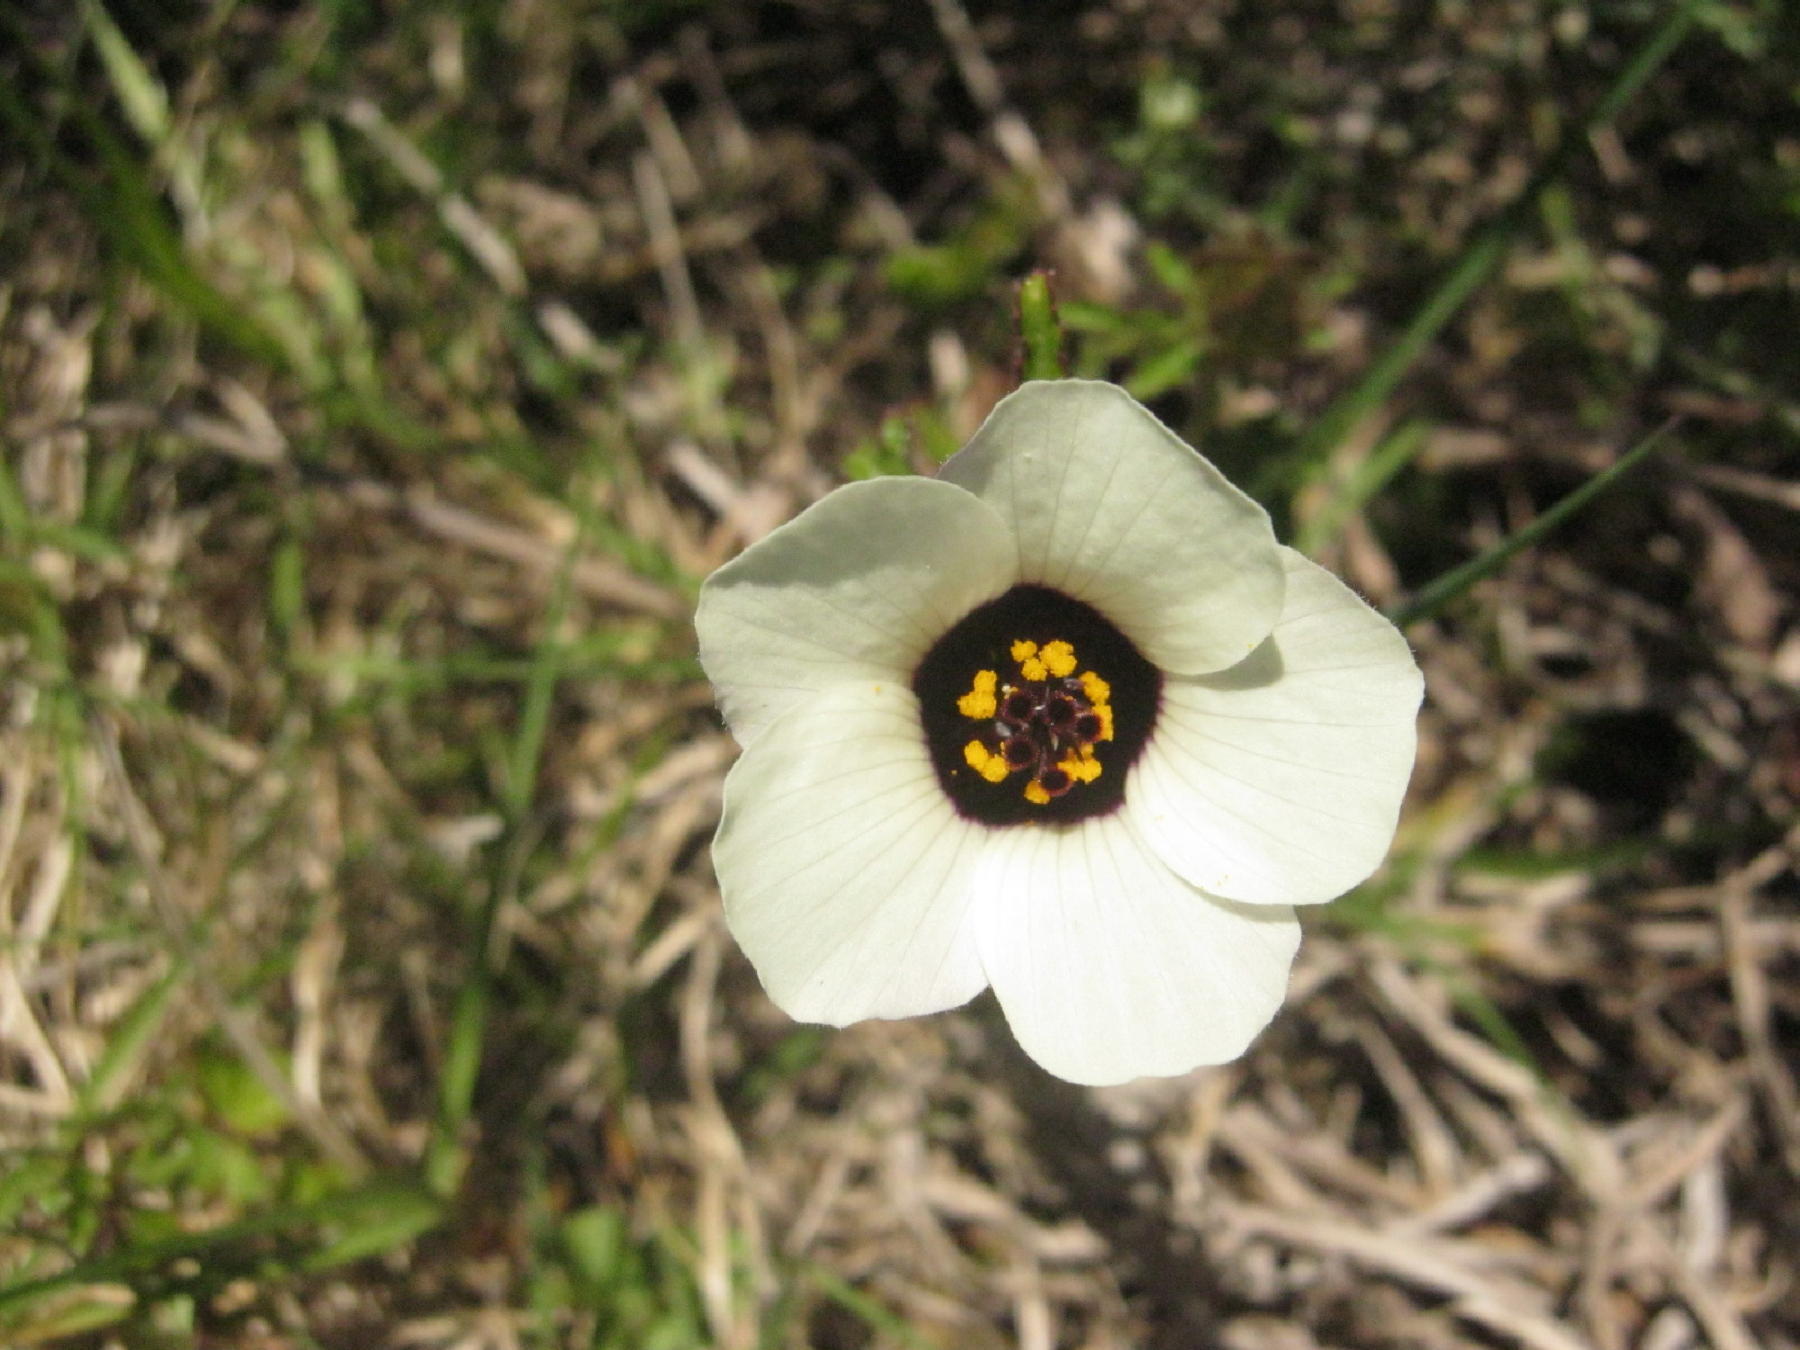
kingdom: Plantae
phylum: Tracheophyta
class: Magnoliopsida
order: Malvales
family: Malvaceae
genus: Hibiscus
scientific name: Hibiscus trionum
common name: Bladder ketmia
